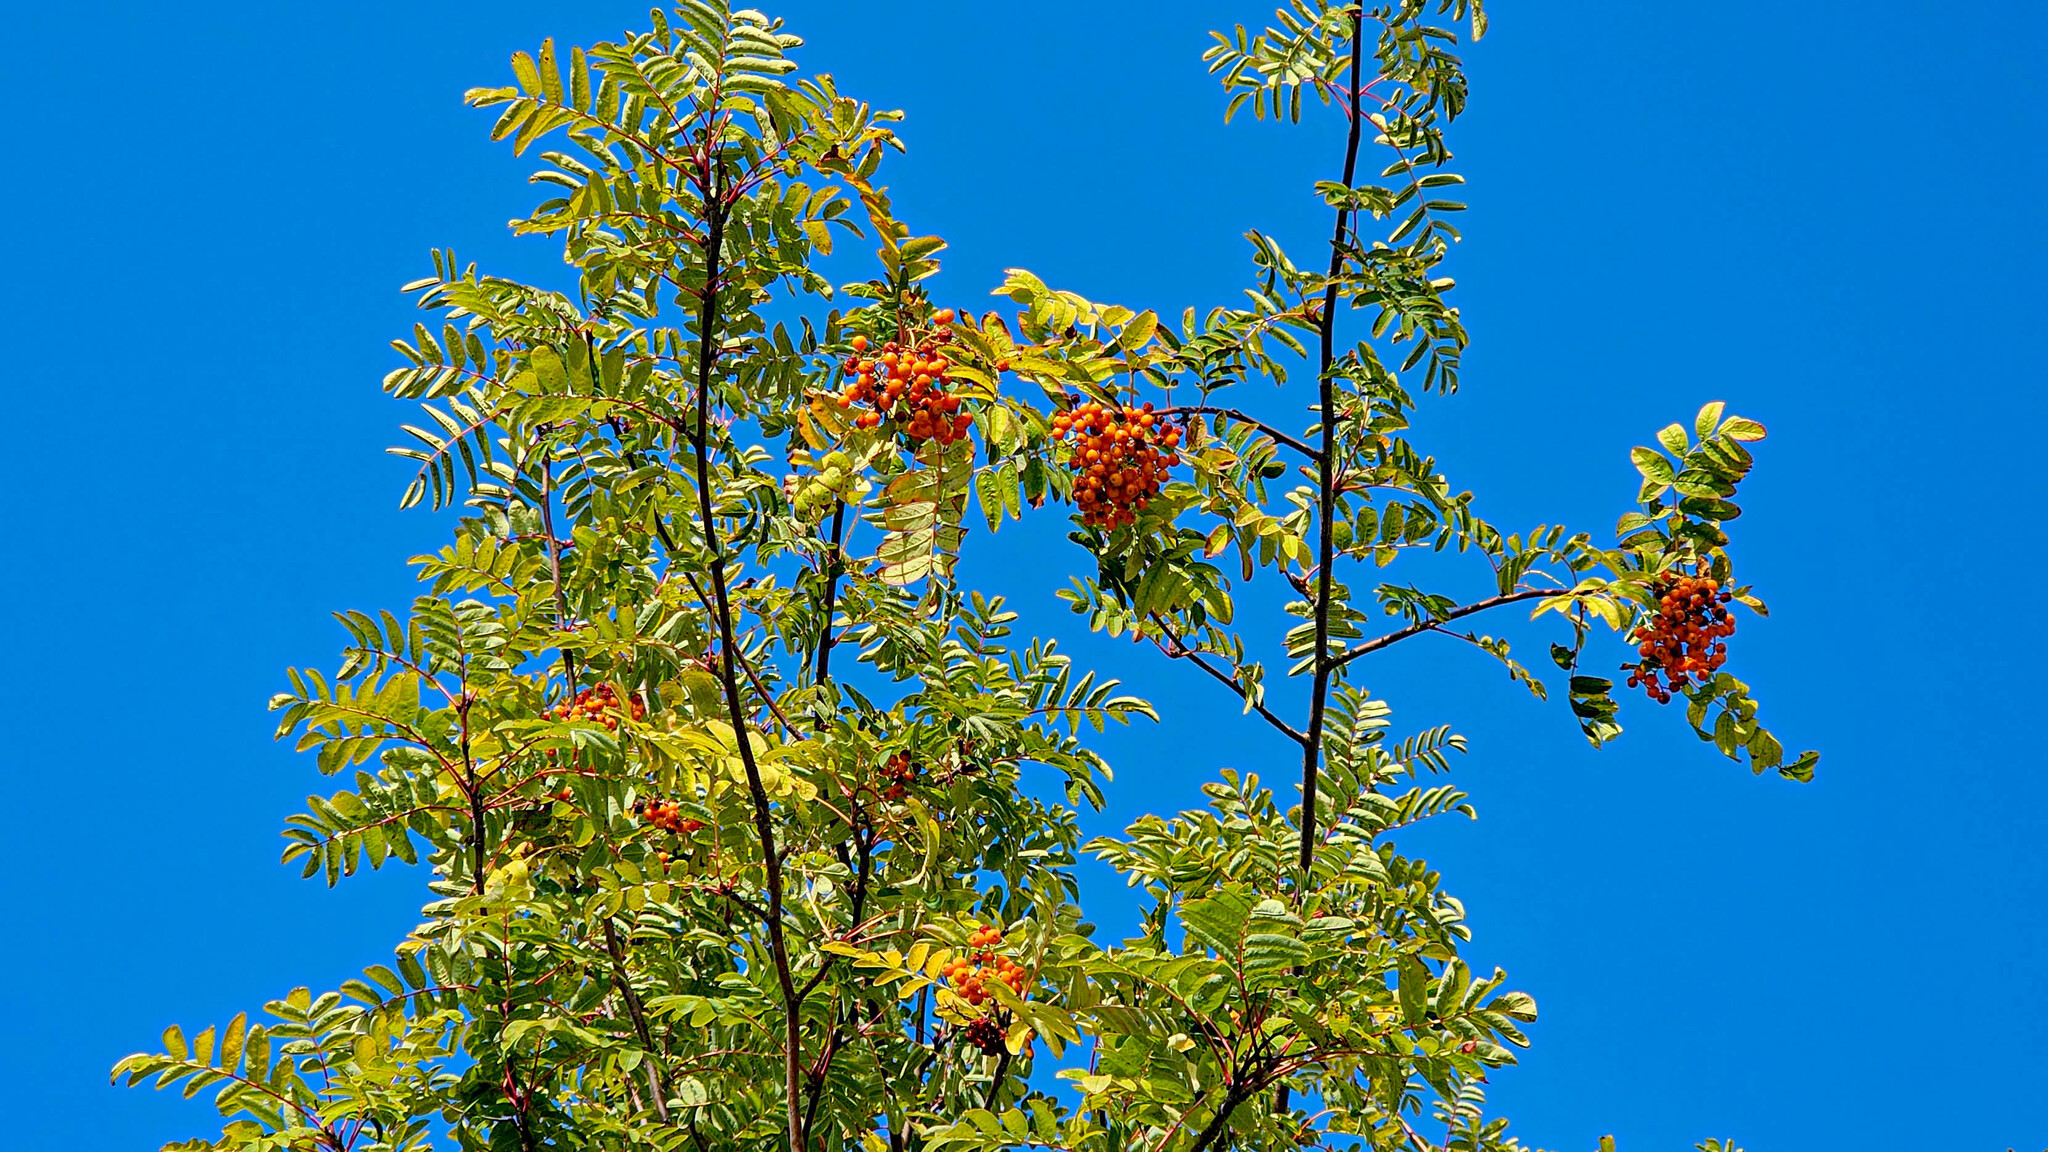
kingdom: Plantae
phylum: Tracheophyta
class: Magnoliopsida
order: Rosales
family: Rosaceae
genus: Sorbus
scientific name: Sorbus aucuparia
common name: Rowan
